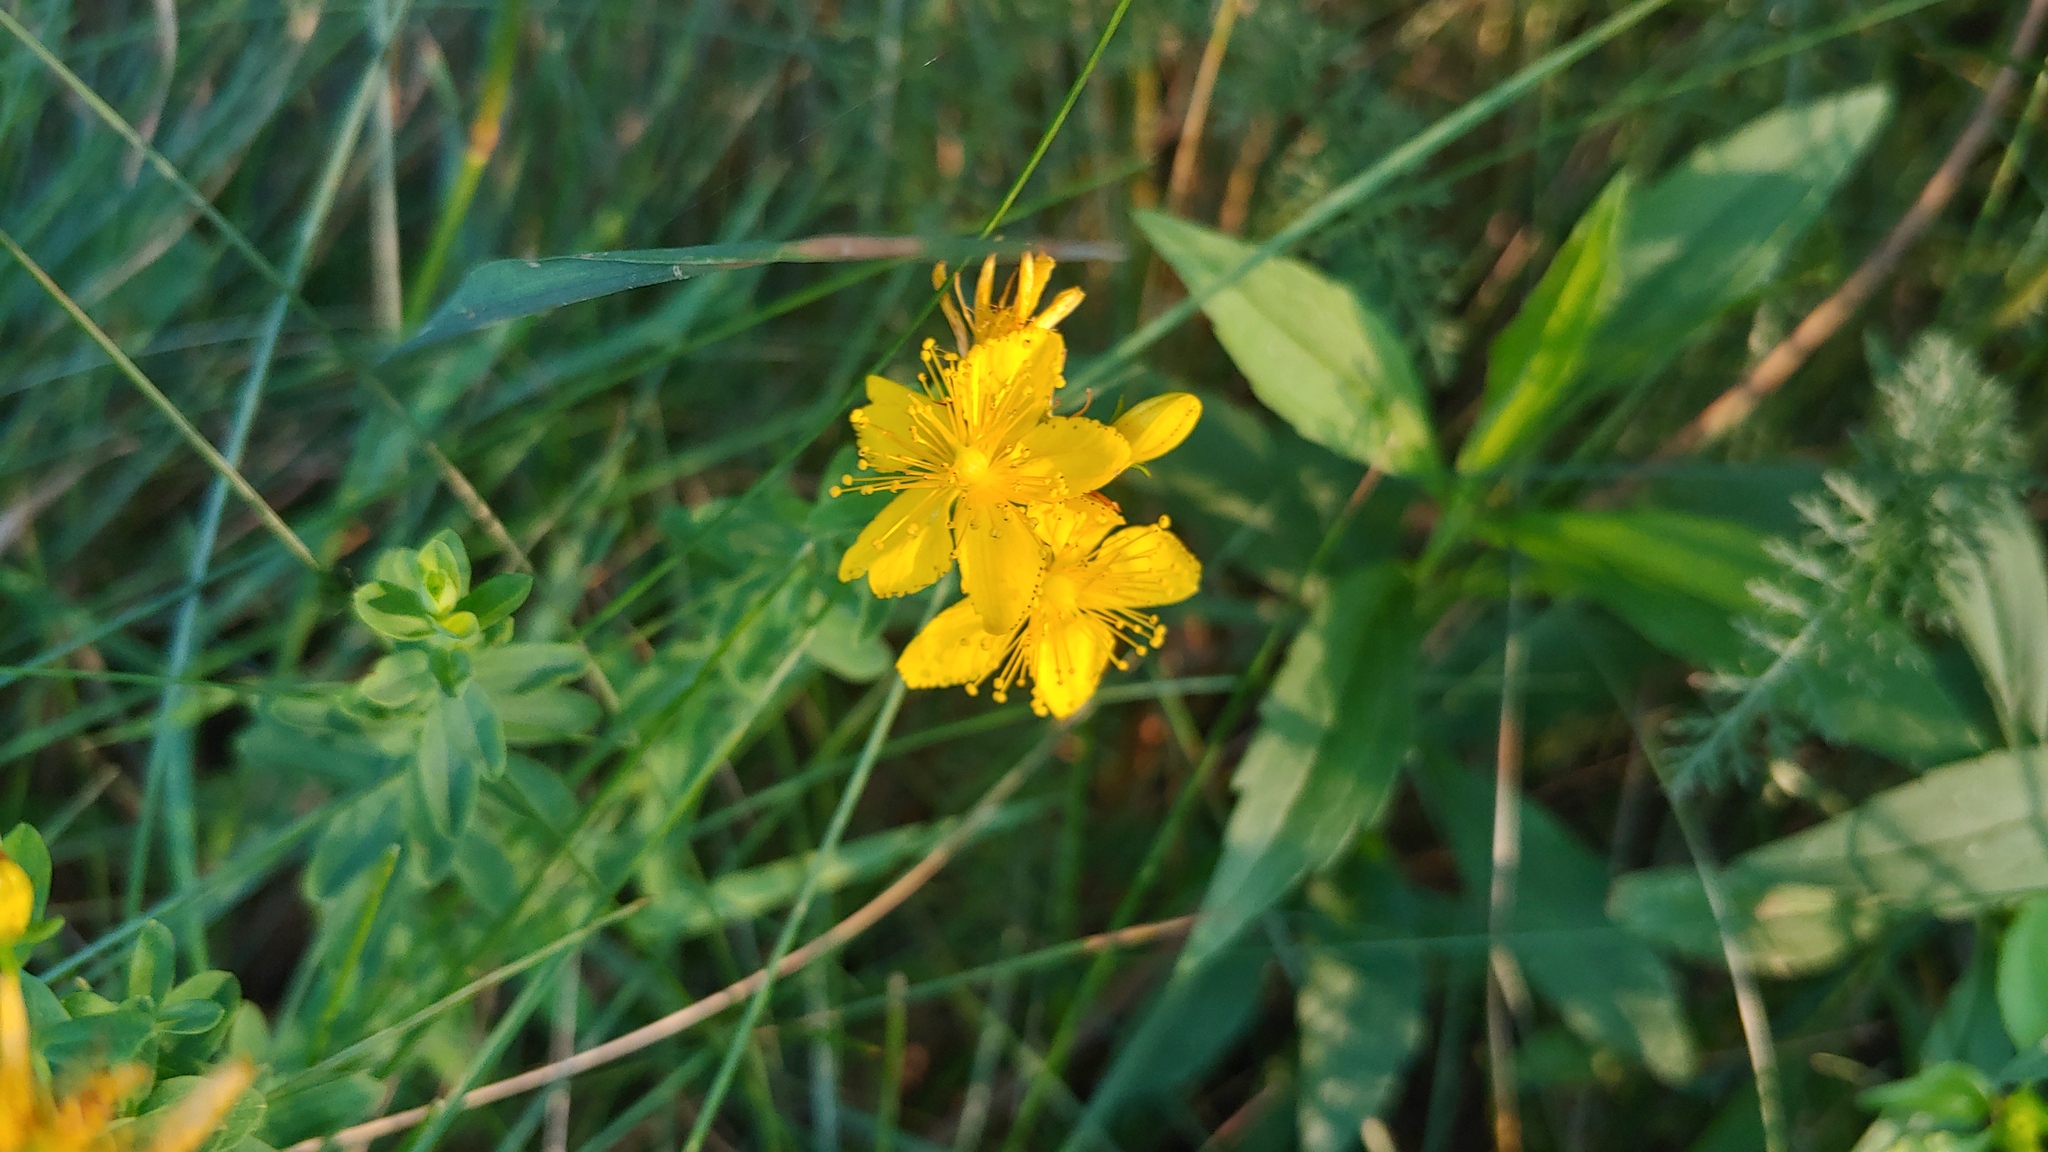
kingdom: Plantae
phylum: Tracheophyta
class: Magnoliopsida
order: Malpighiales
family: Hypericaceae
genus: Hypericum
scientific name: Hypericum perforatum
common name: Common st. johnswort
